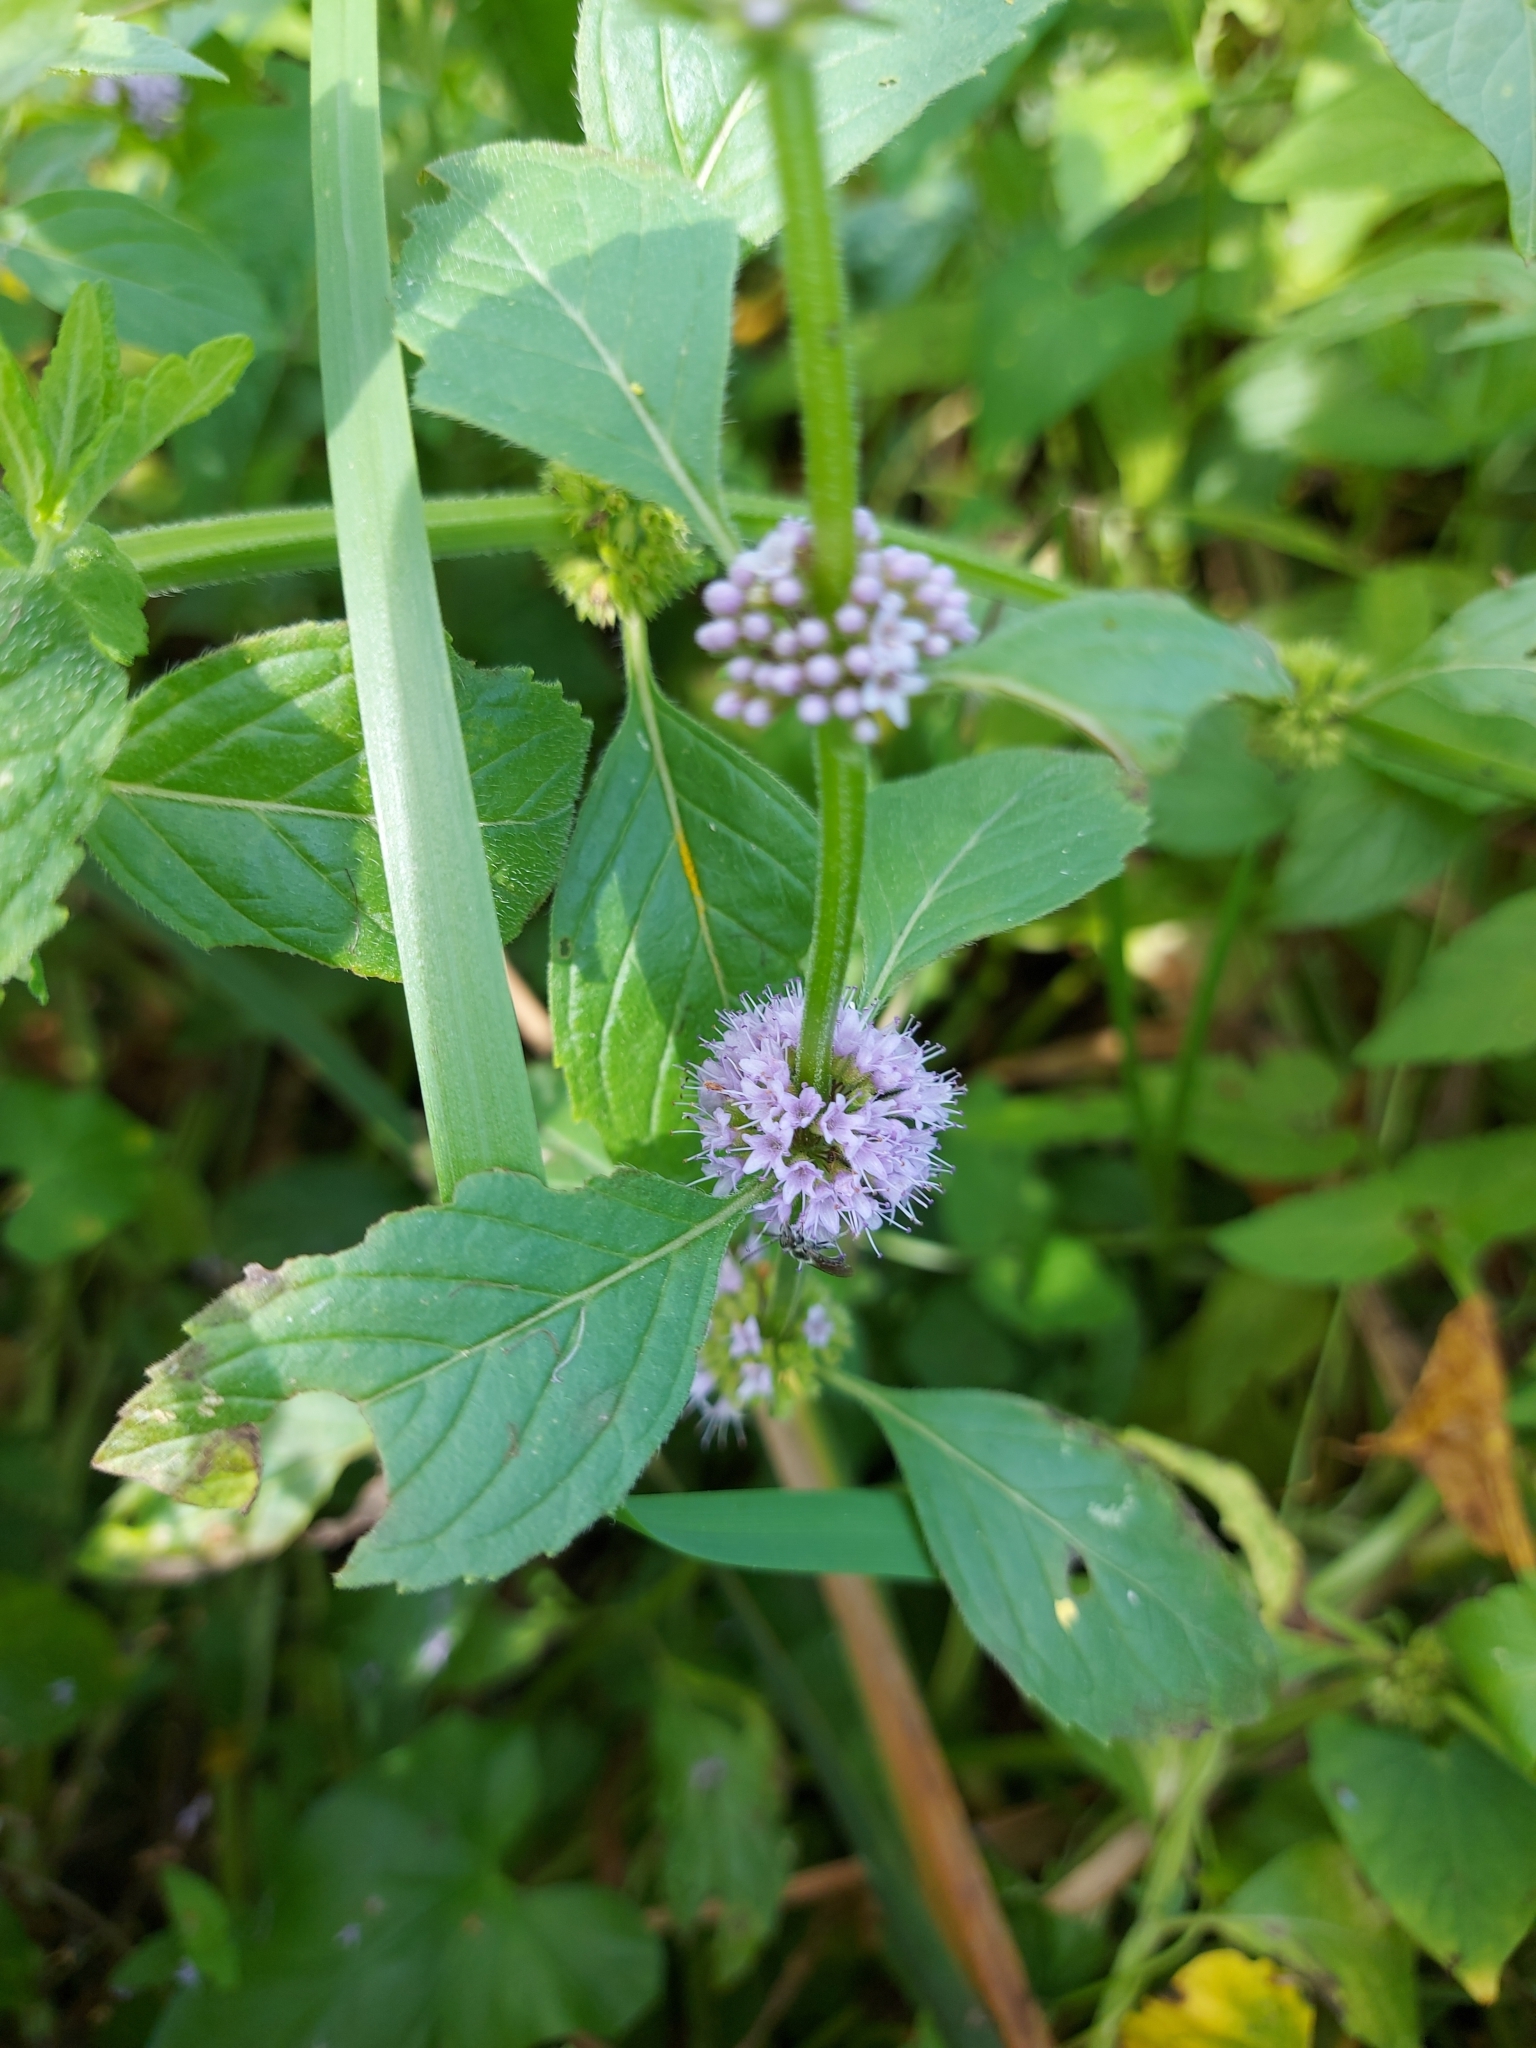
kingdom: Plantae
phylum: Tracheophyta
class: Magnoliopsida
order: Lamiales
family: Lamiaceae
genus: Mentha
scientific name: Mentha arvensis
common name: Corn mint
